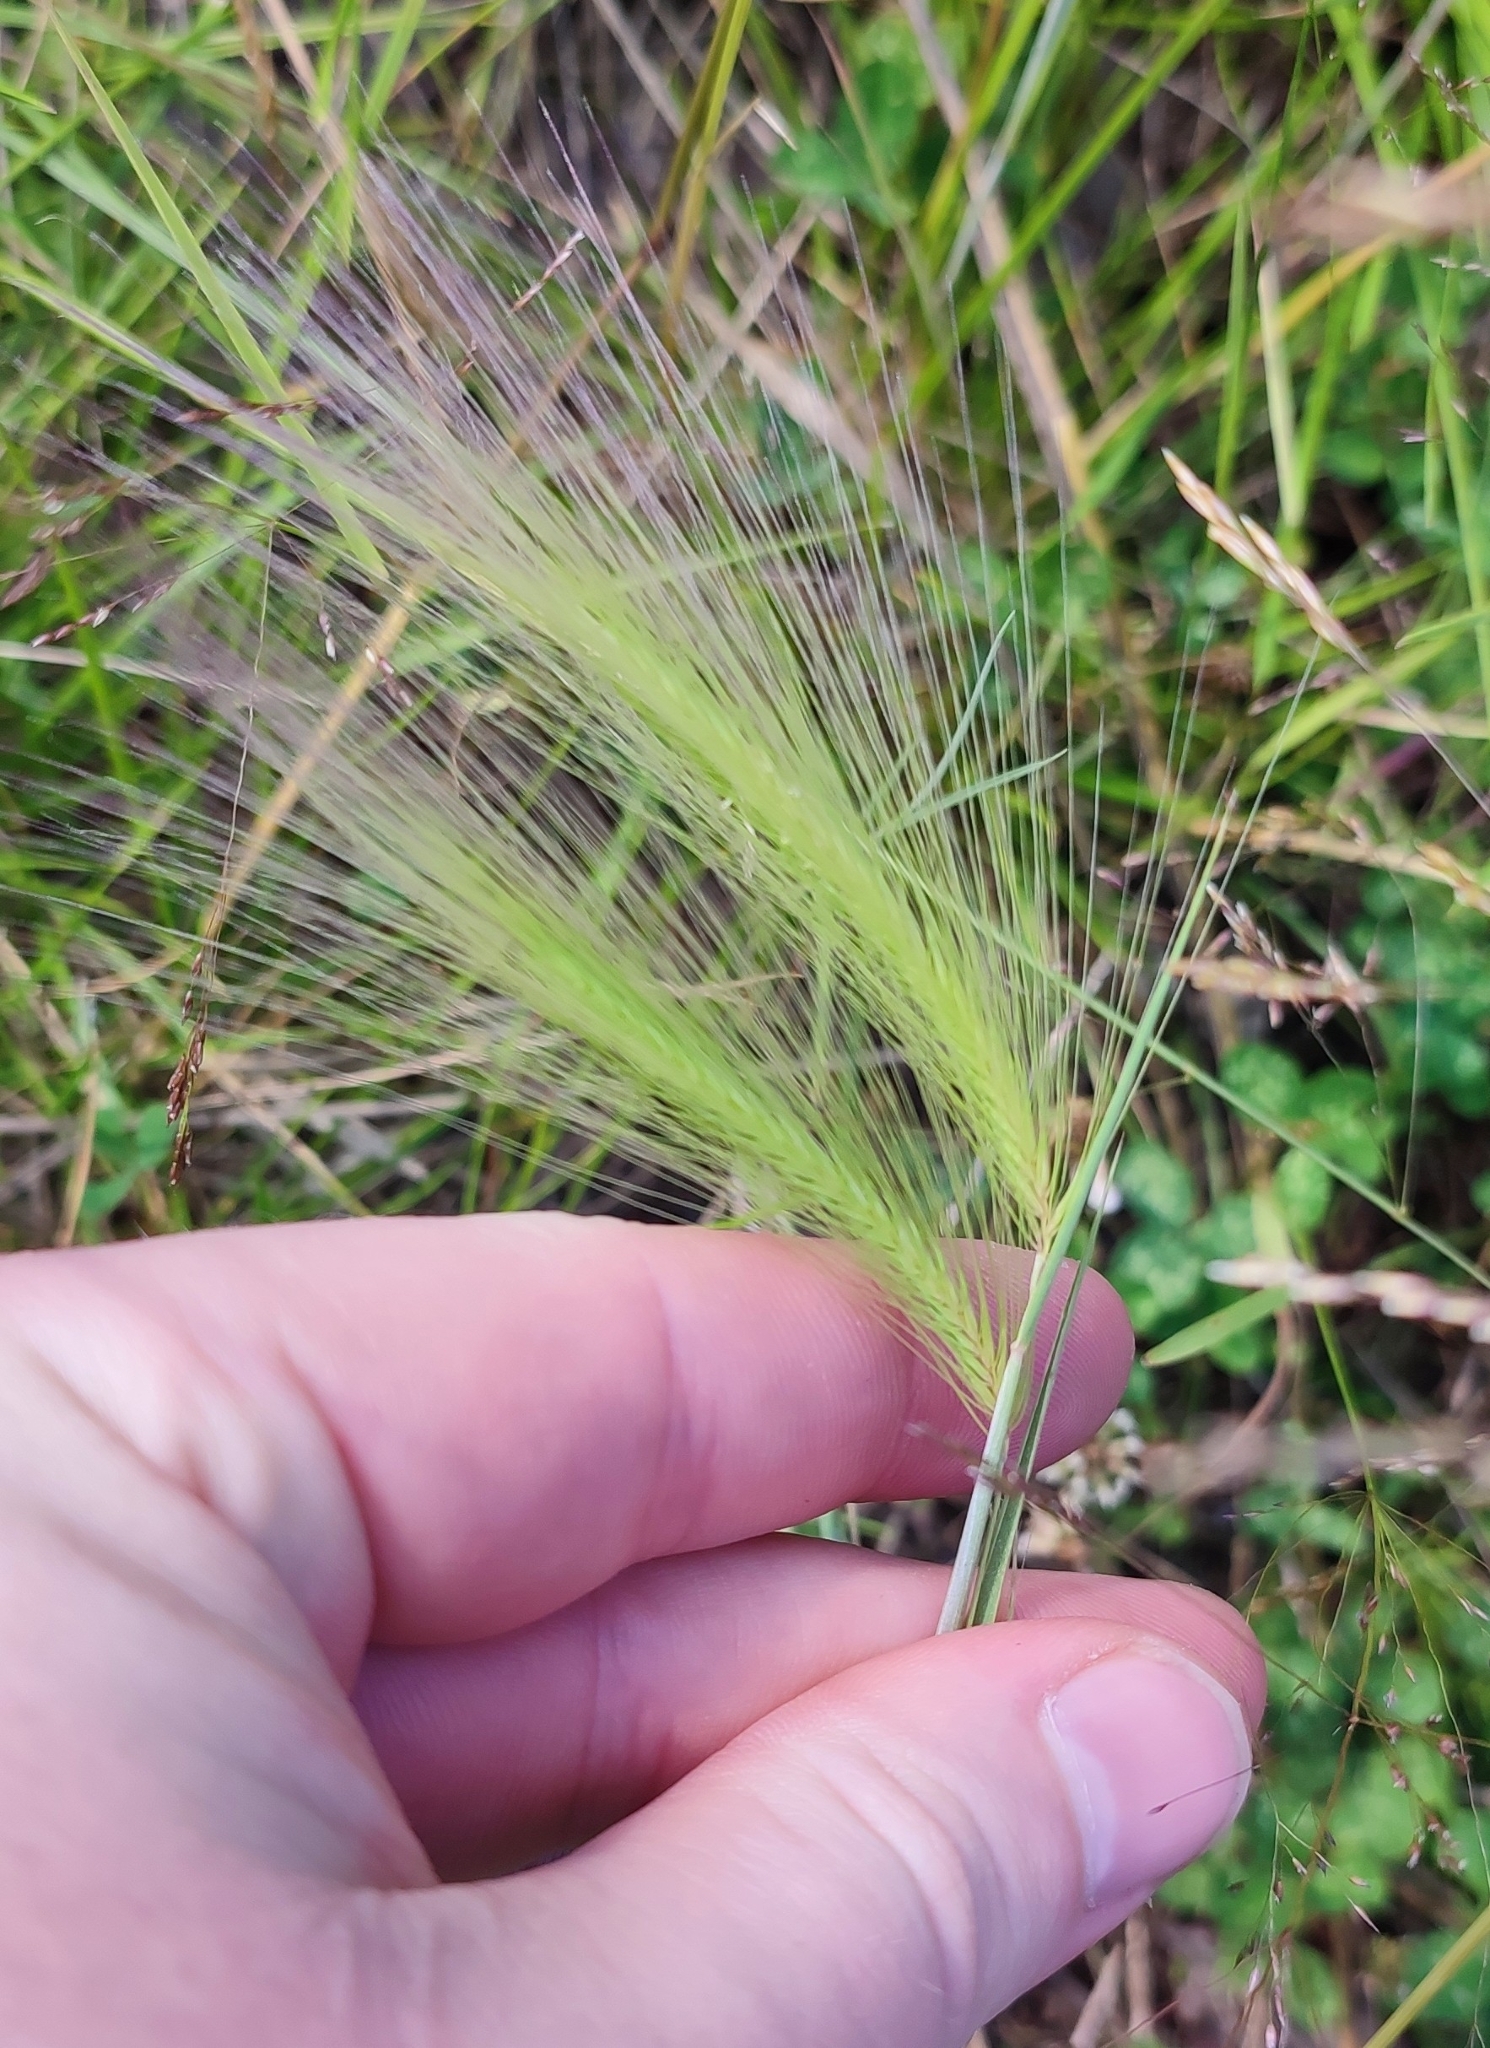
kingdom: Plantae
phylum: Tracheophyta
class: Liliopsida
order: Poales
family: Poaceae
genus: Hordeum
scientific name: Hordeum jubatum
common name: Foxtail barley
